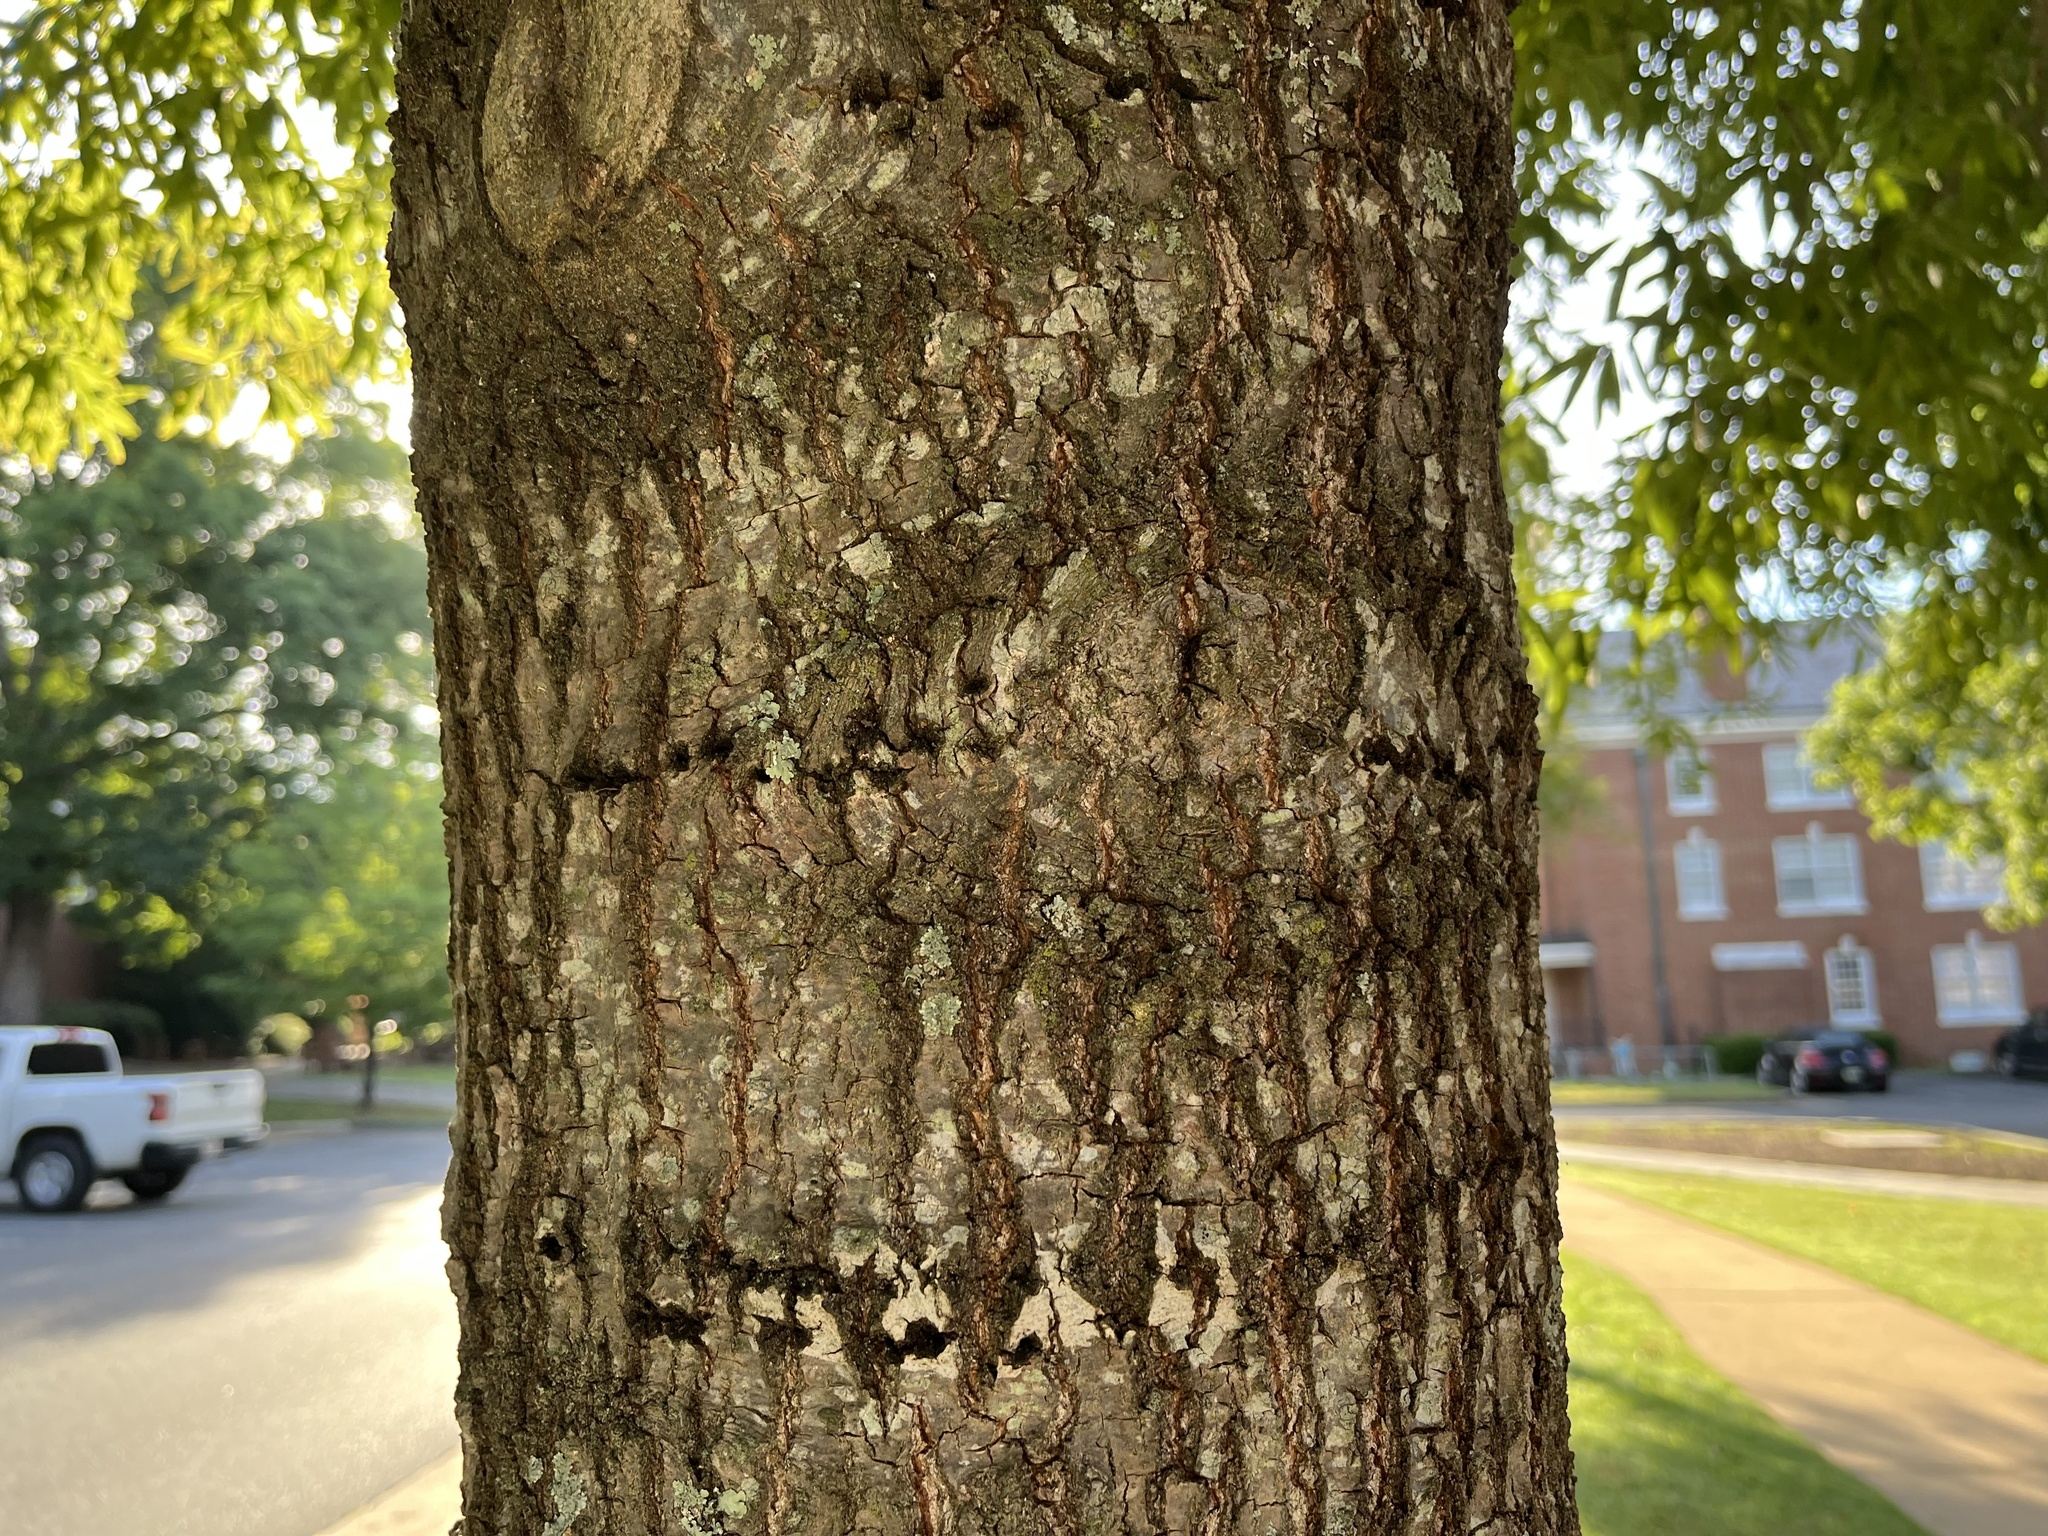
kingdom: Animalia
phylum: Chordata
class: Aves
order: Piciformes
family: Picidae
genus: Sphyrapicus
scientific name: Sphyrapicus varius
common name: Yellow-bellied sapsucker
